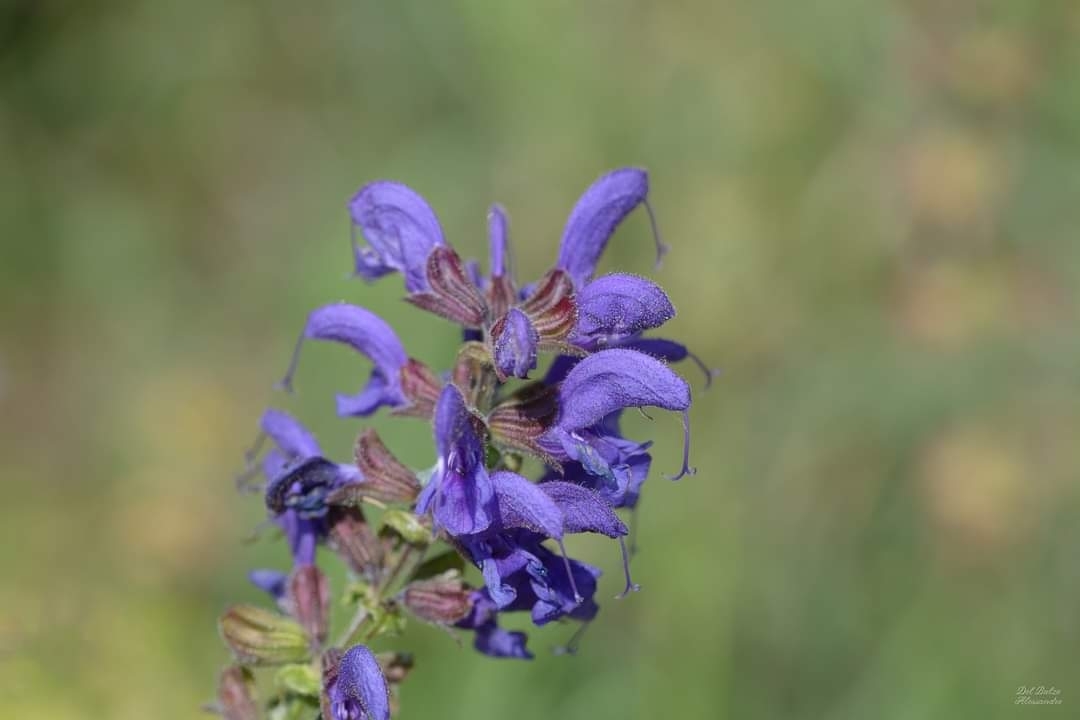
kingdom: Plantae
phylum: Tracheophyta
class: Magnoliopsida
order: Lamiales
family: Lamiaceae
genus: Salvia
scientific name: Salvia pratensis
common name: Meadow sage
